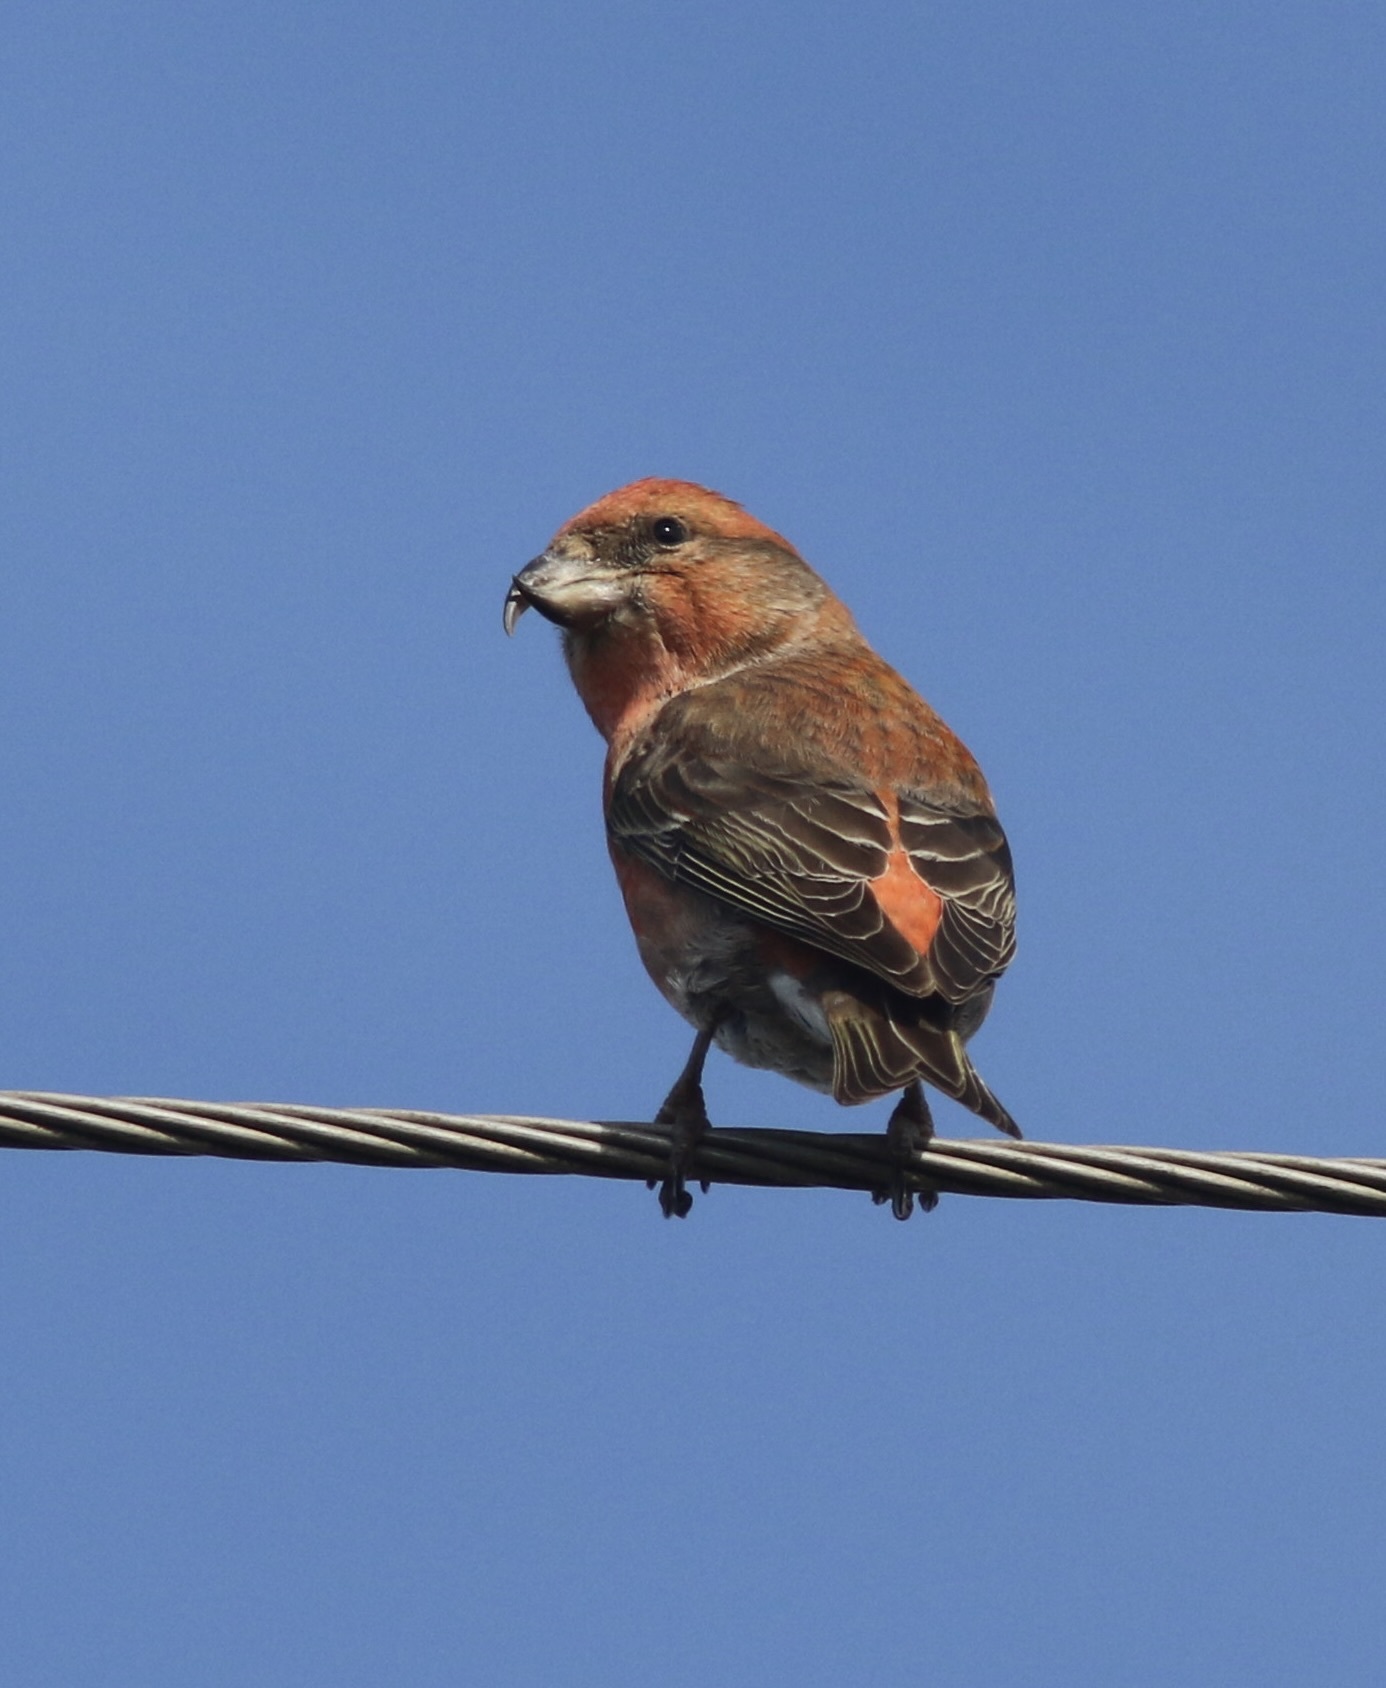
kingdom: Animalia
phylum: Chordata
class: Aves
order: Passeriformes
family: Fringillidae
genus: Loxia
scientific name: Loxia curvirostra
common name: Red crossbill
